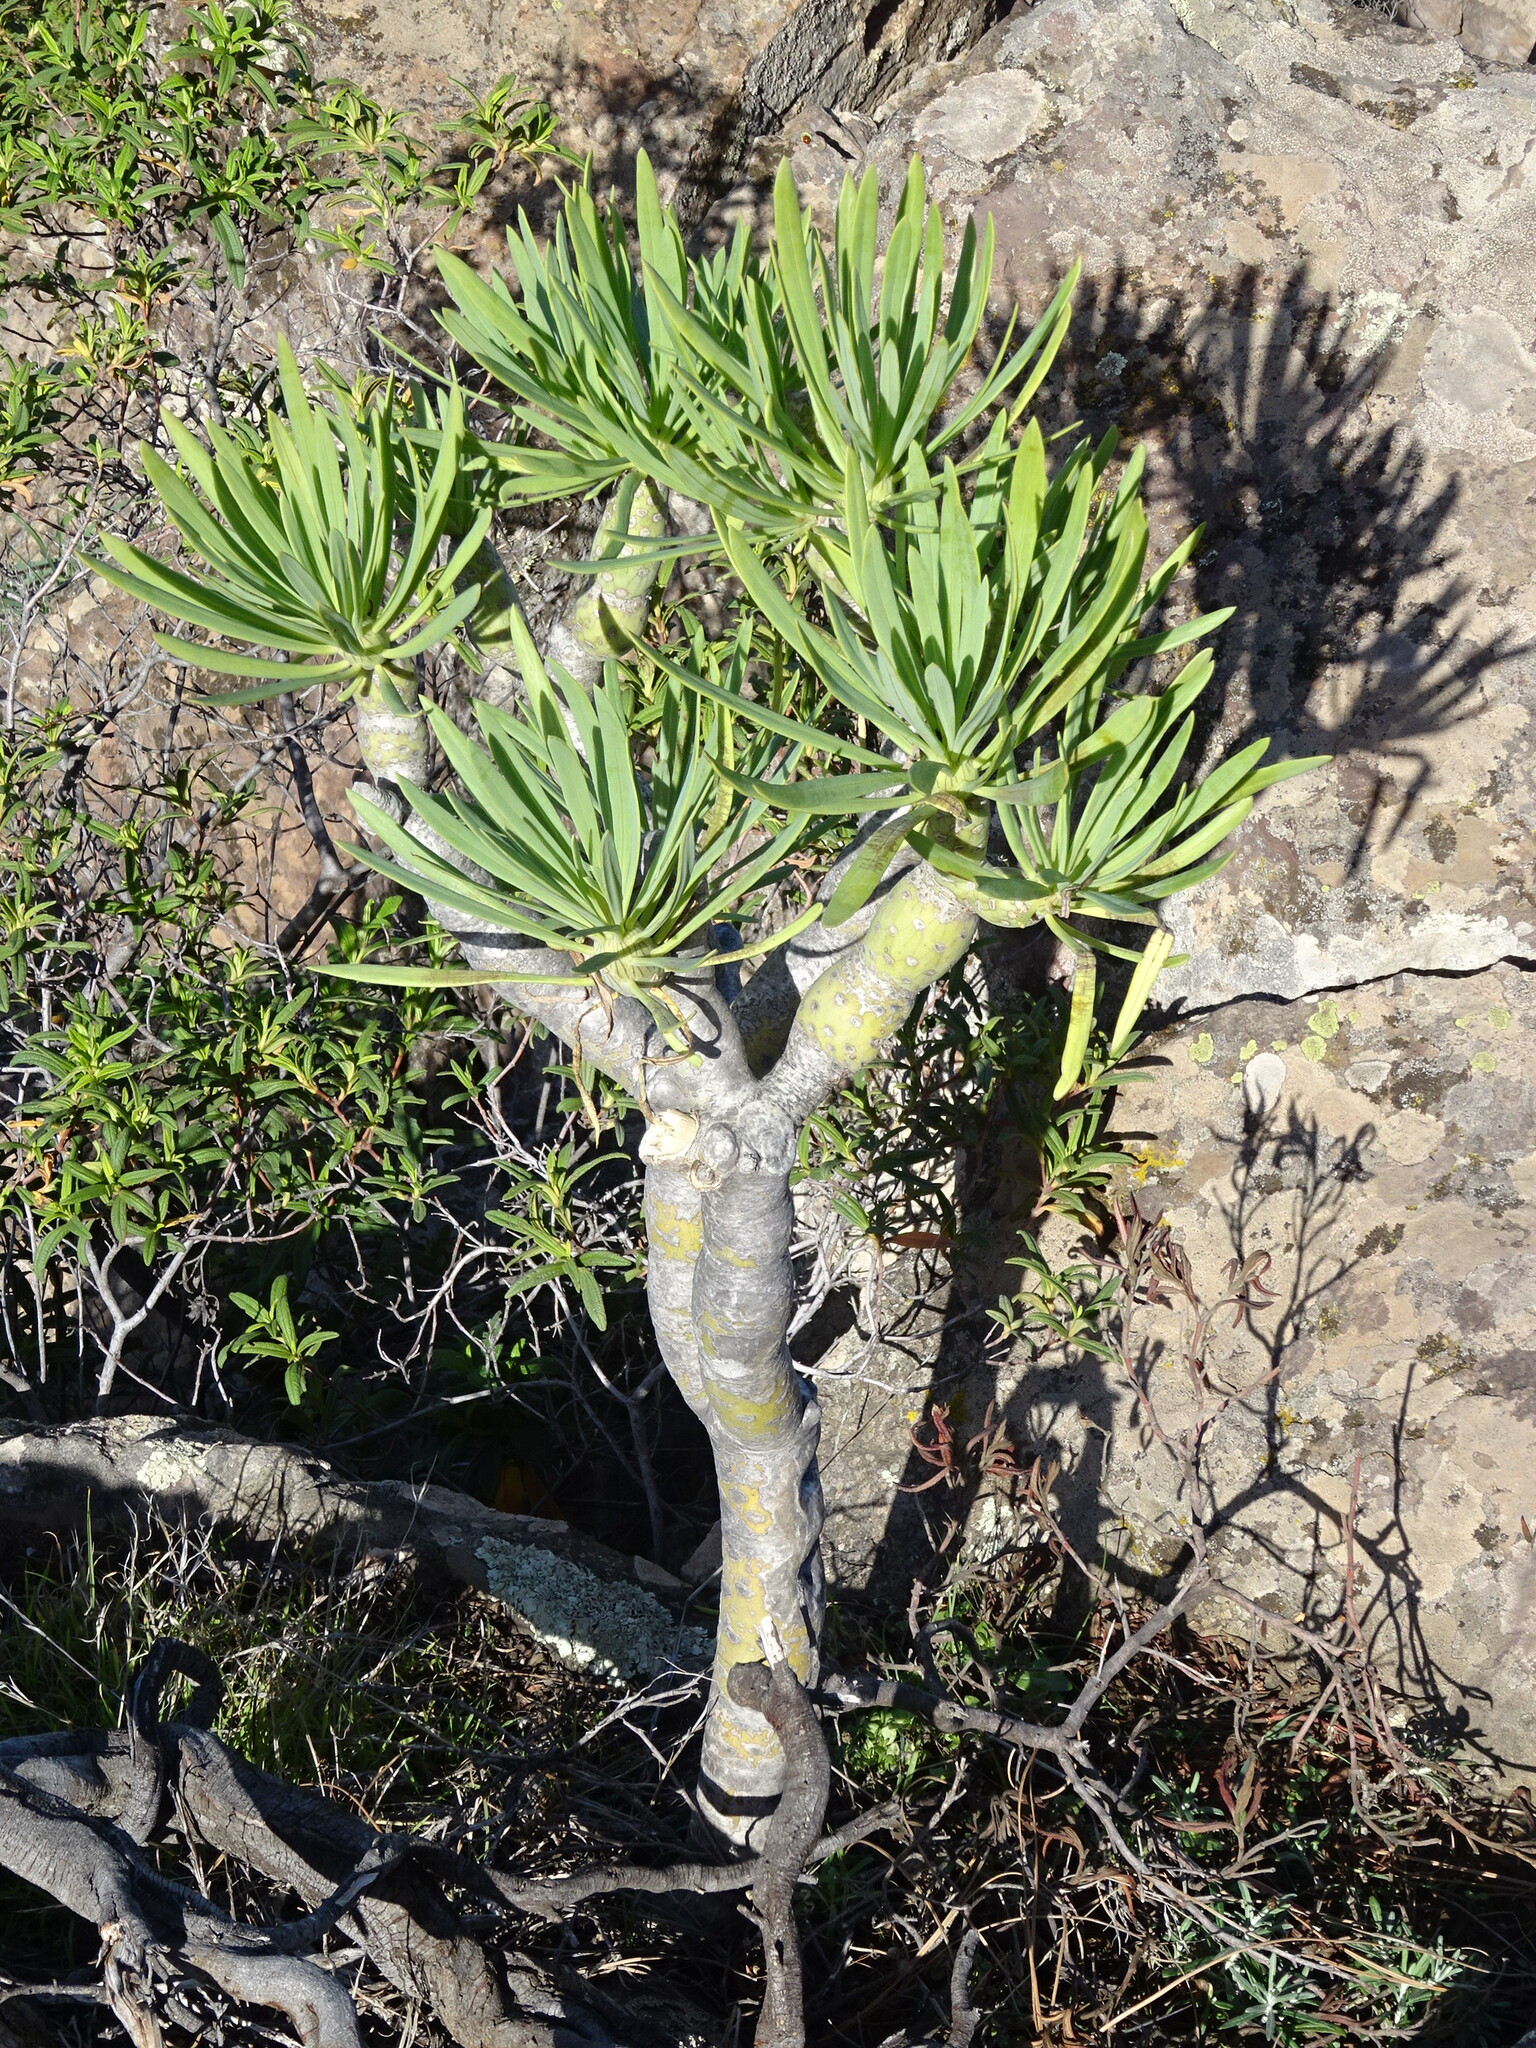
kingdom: Plantae
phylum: Tracheophyta
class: Magnoliopsida
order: Asterales
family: Asteraceae
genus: Kleinia
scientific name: Kleinia neriifolia
